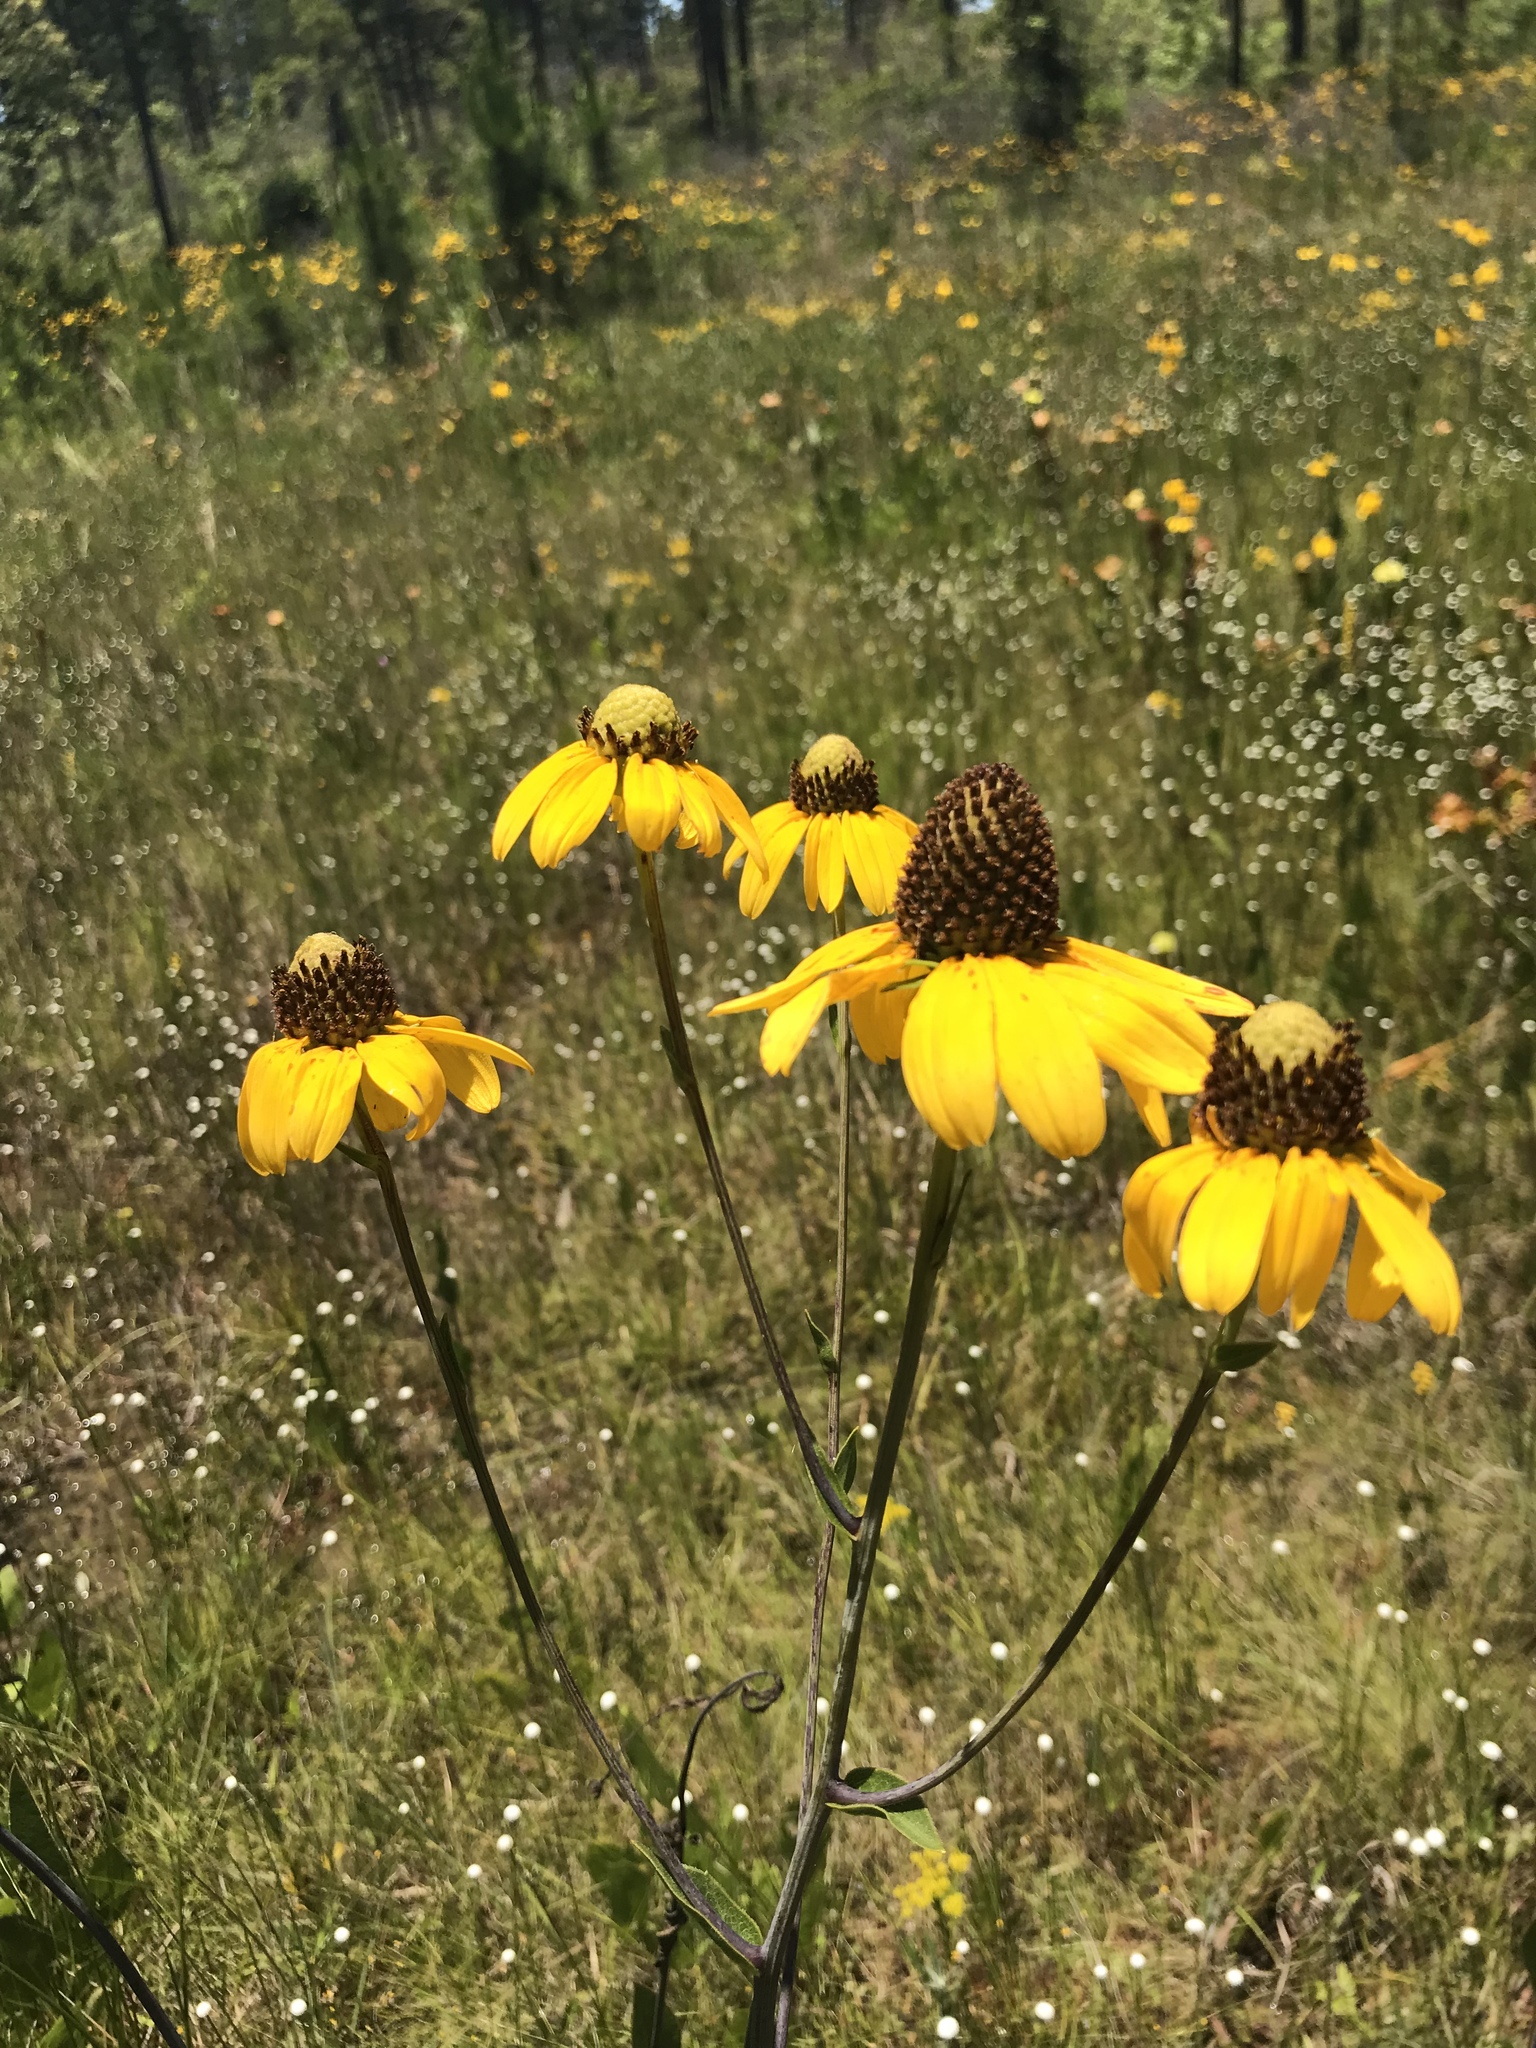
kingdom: Plantae
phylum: Tracheophyta
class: Magnoliopsida
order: Asterales
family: Asteraceae
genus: Rudbeckia
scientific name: Rudbeckia scabrifolia
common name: Rough-leaf coneflower
